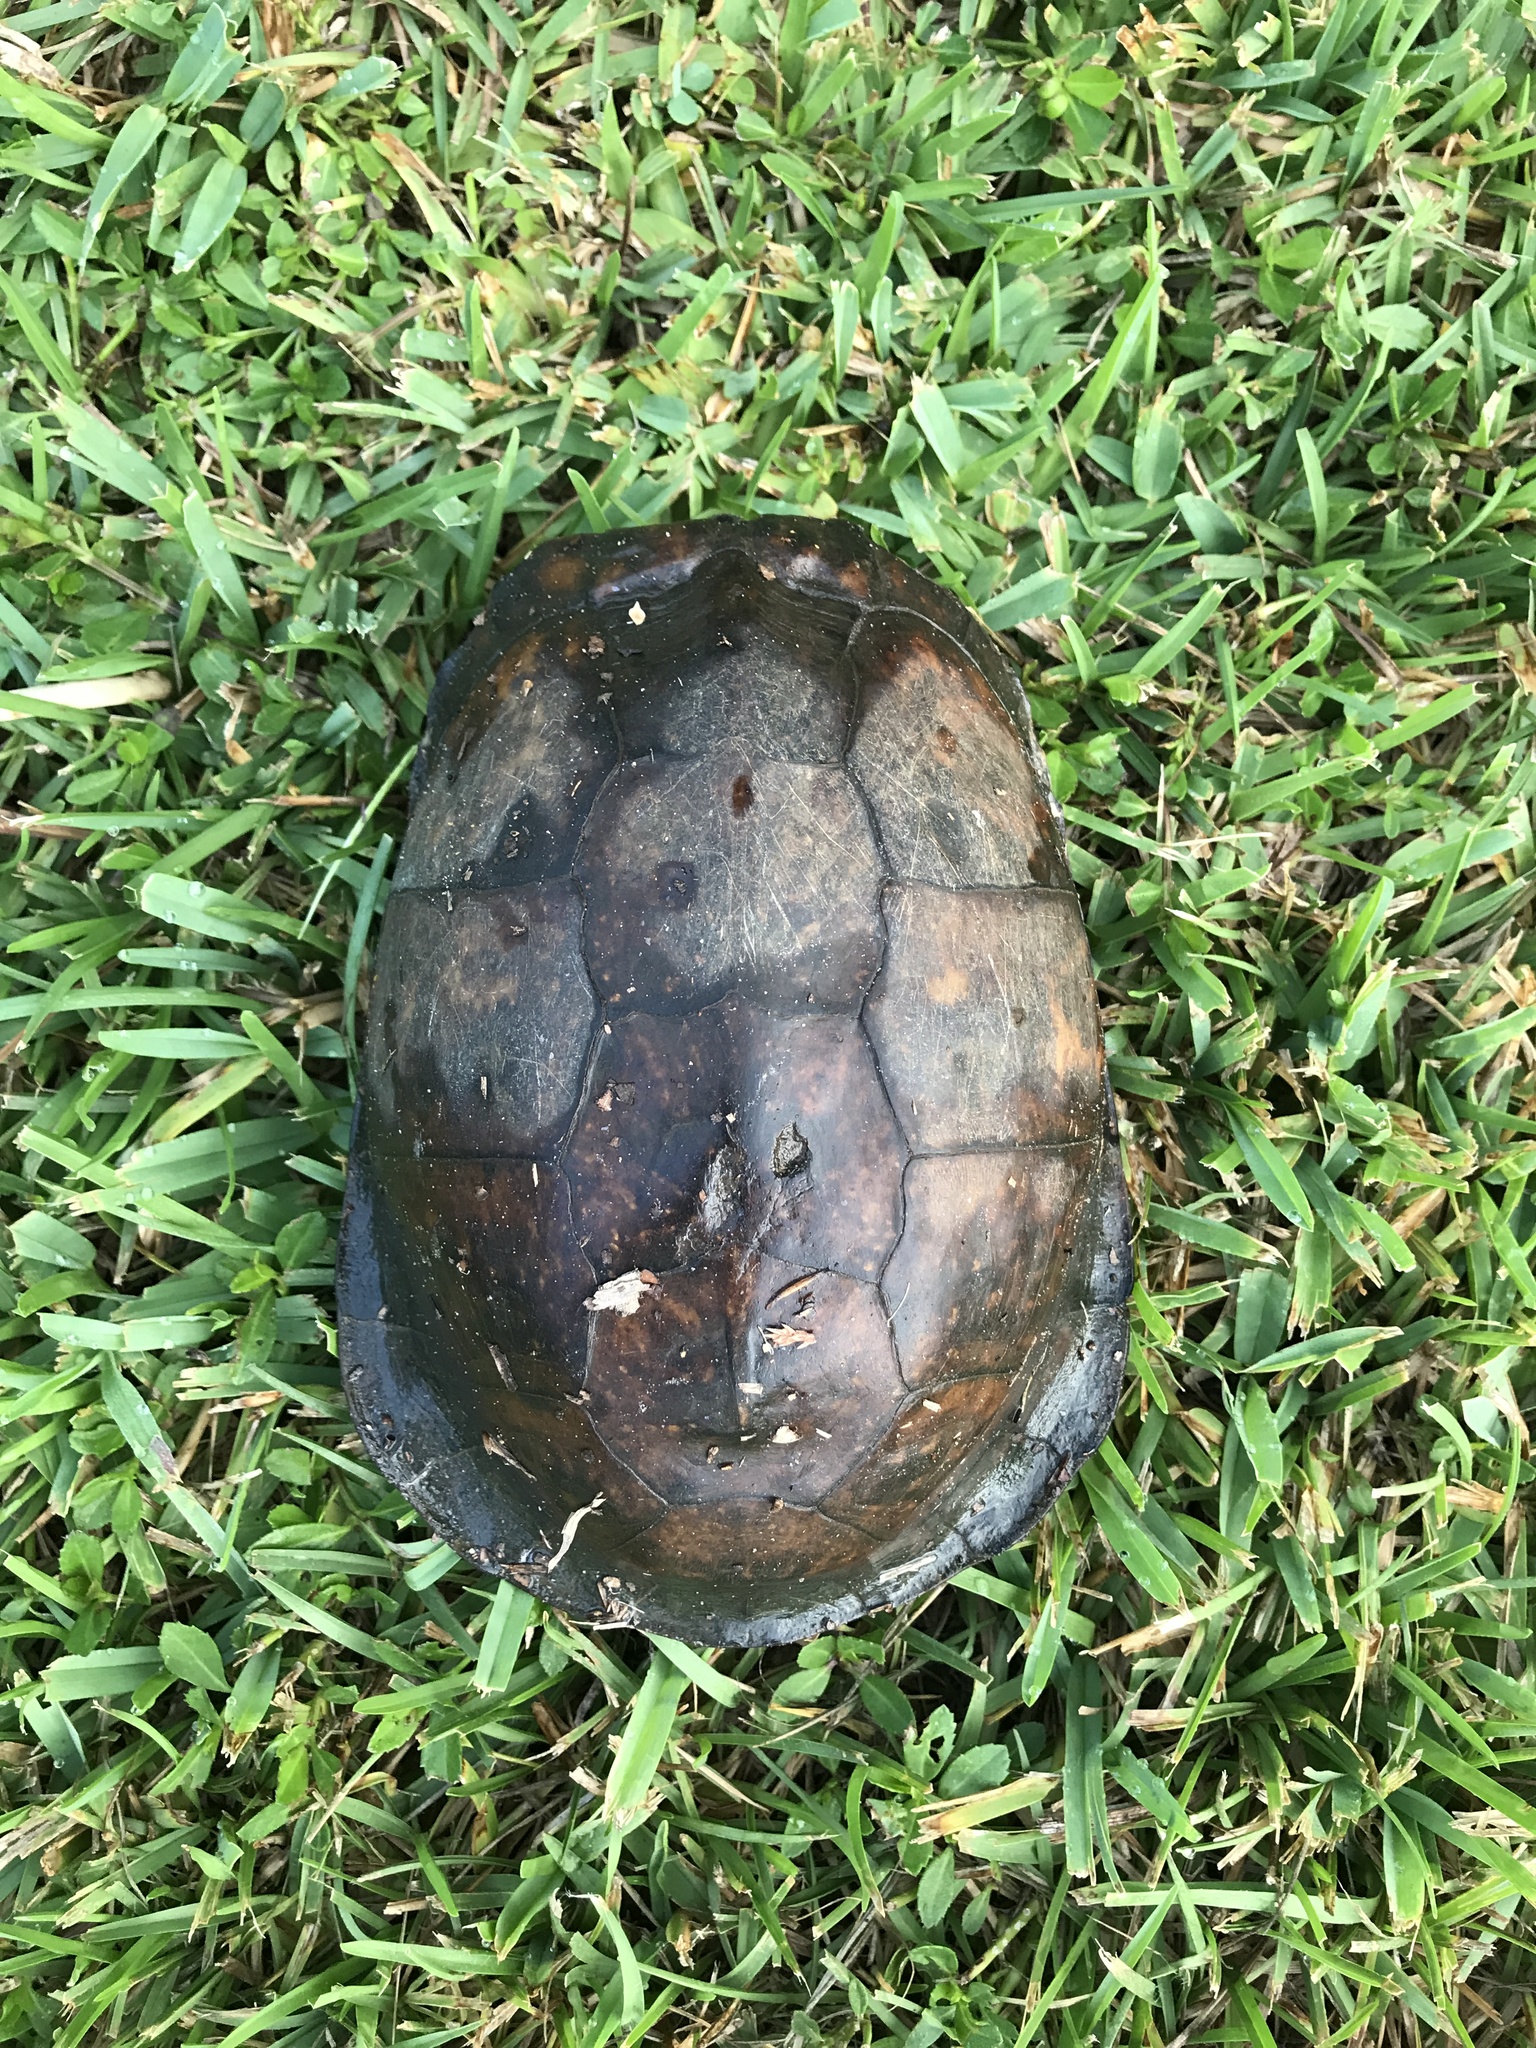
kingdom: Animalia
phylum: Chordata
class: Testudines
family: Emydidae
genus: Terrapene
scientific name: Terrapene carolina
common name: Common box turtle
